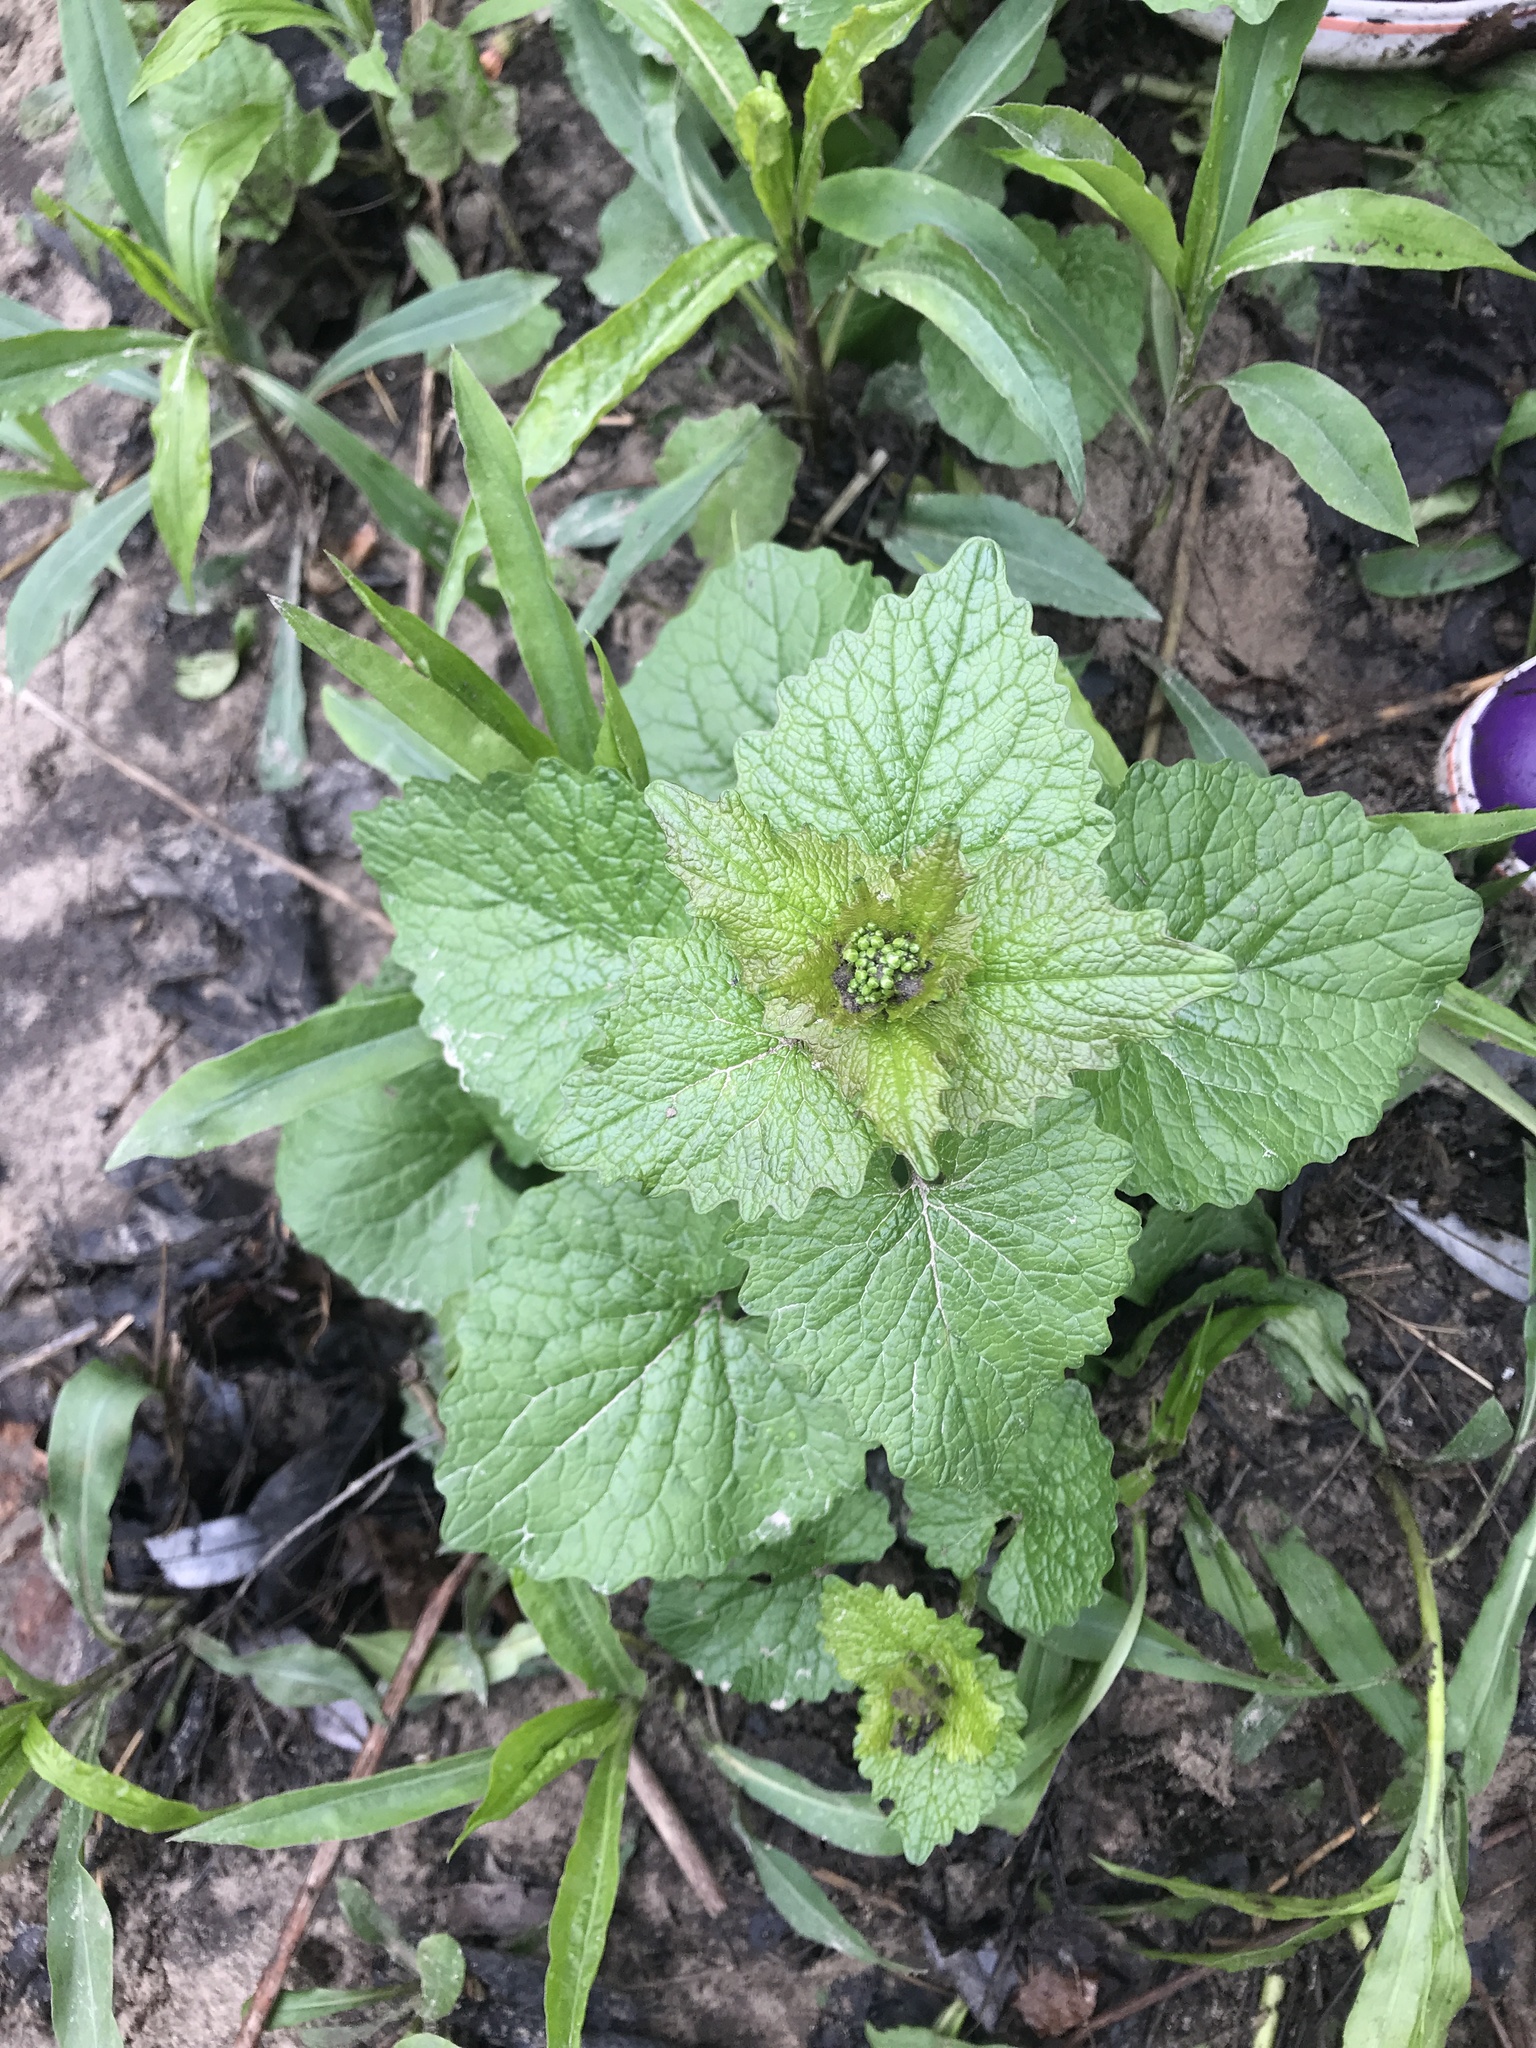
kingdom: Plantae
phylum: Tracheophyta
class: Magnoliopsida
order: Brassicales
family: Brassicaceae
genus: Alliaria
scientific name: Alliaria petiolata
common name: Garlic mustard
